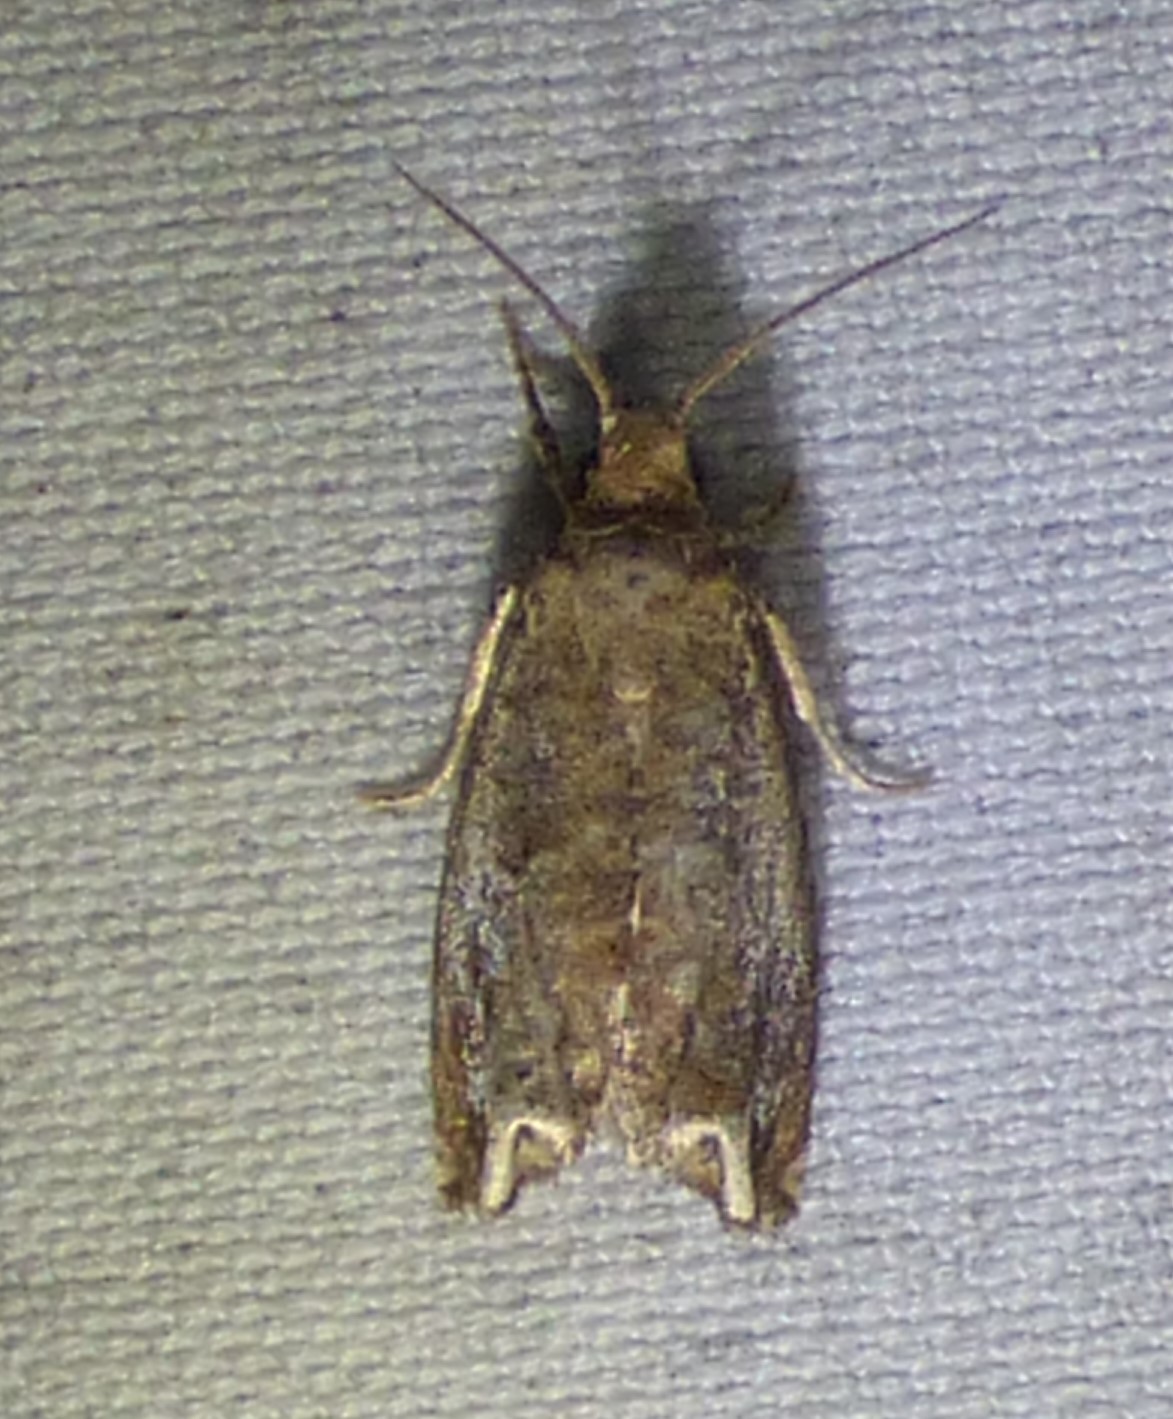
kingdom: Animalia
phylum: Arthropoda
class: Insecta
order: Lepidoptera
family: Tortricidae
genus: Epiblema
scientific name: Epiblema strenuana
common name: Ragweed borer moth
